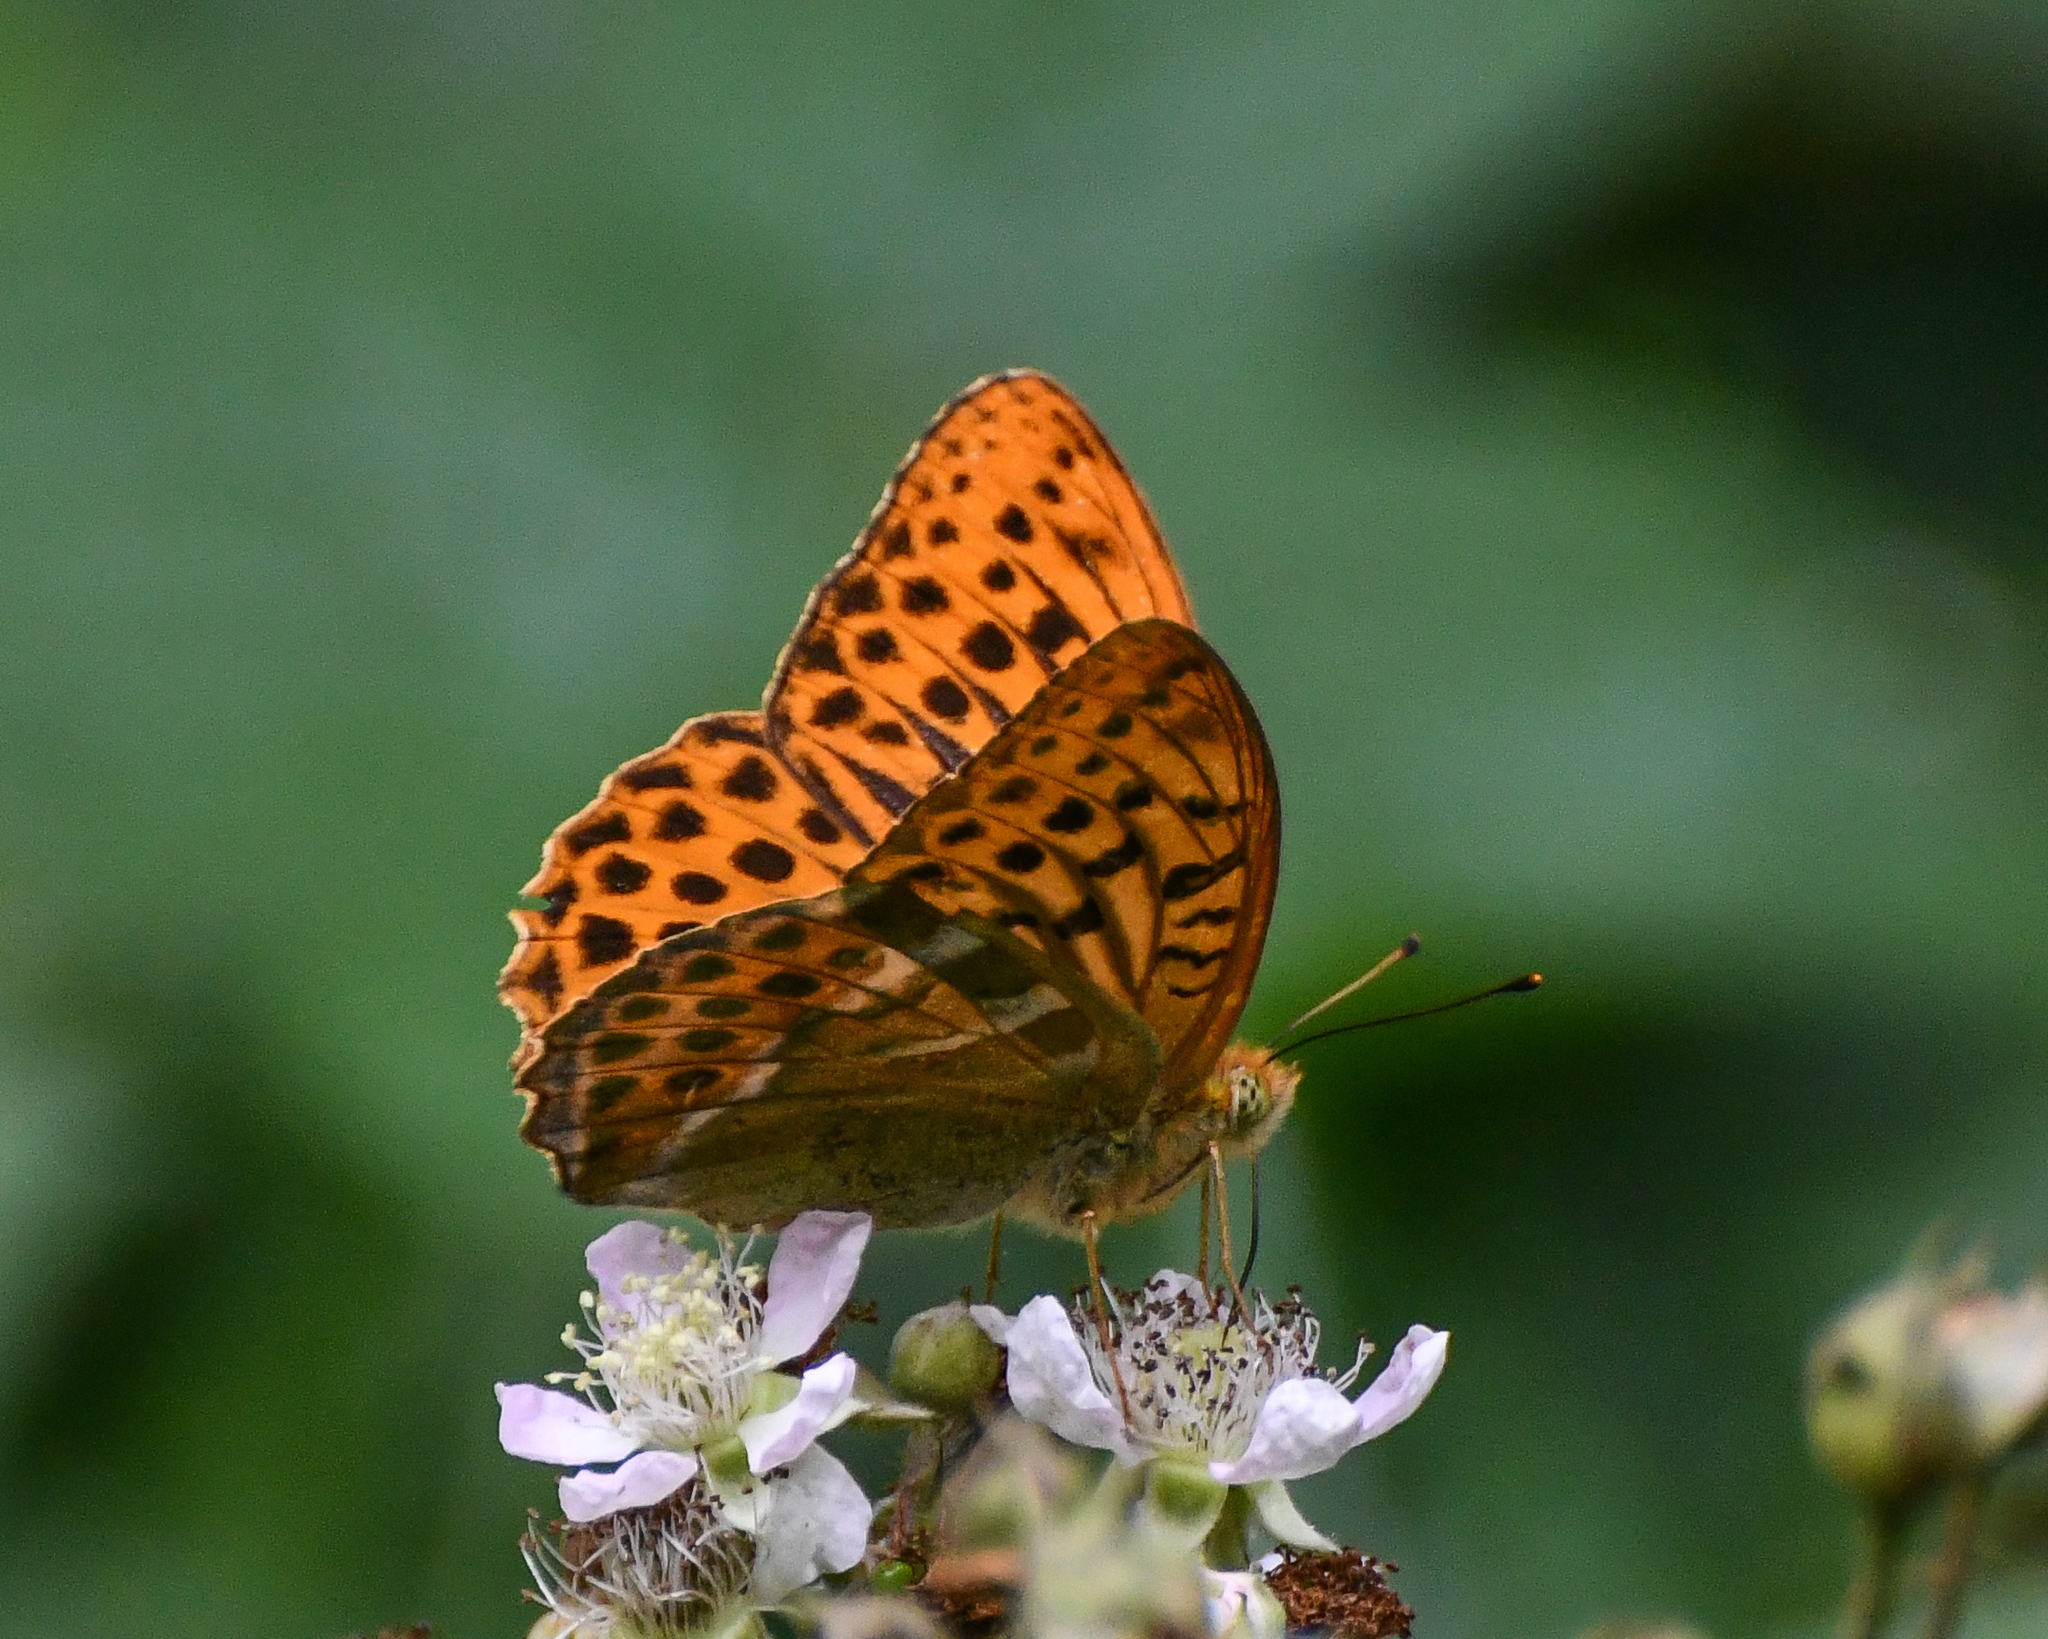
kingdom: Animalia
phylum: Arthropoda
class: Insecta
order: Lepidoptera
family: Nymphalidae
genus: Argynnis
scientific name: Argynnis paphia
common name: Silver-washed fritillary
